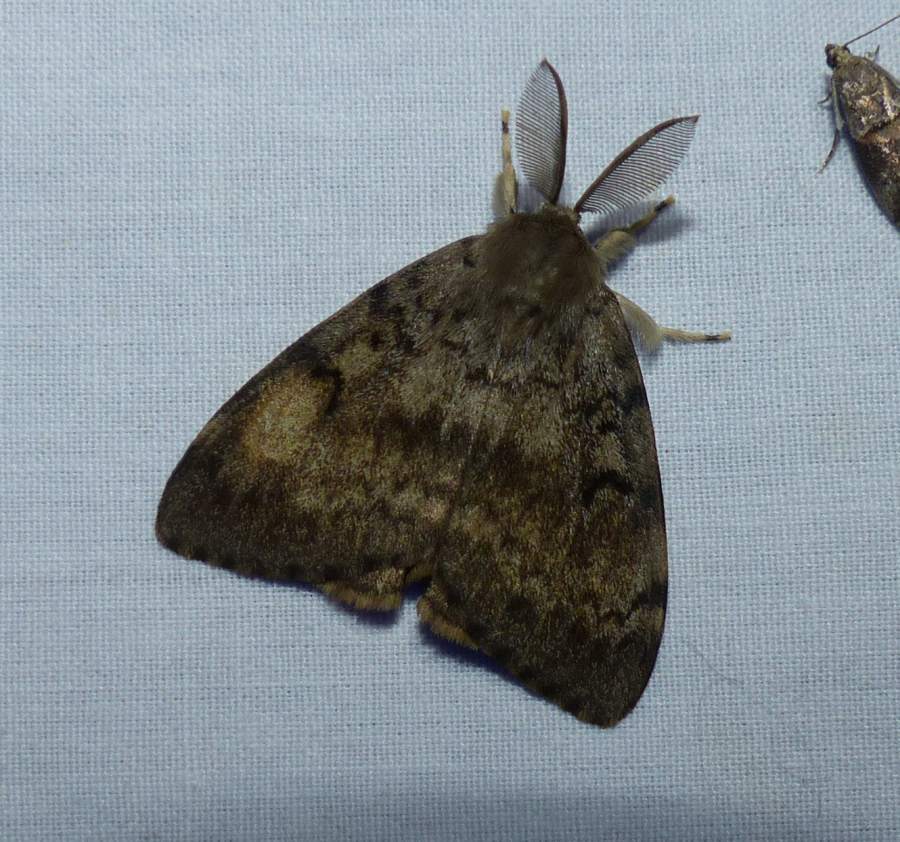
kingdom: Animalia
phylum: Arthropoda
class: Insecta
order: Lepidoptera
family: Erebidae
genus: Lymantria
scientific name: Lymantria dispar
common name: Gypsy moth
